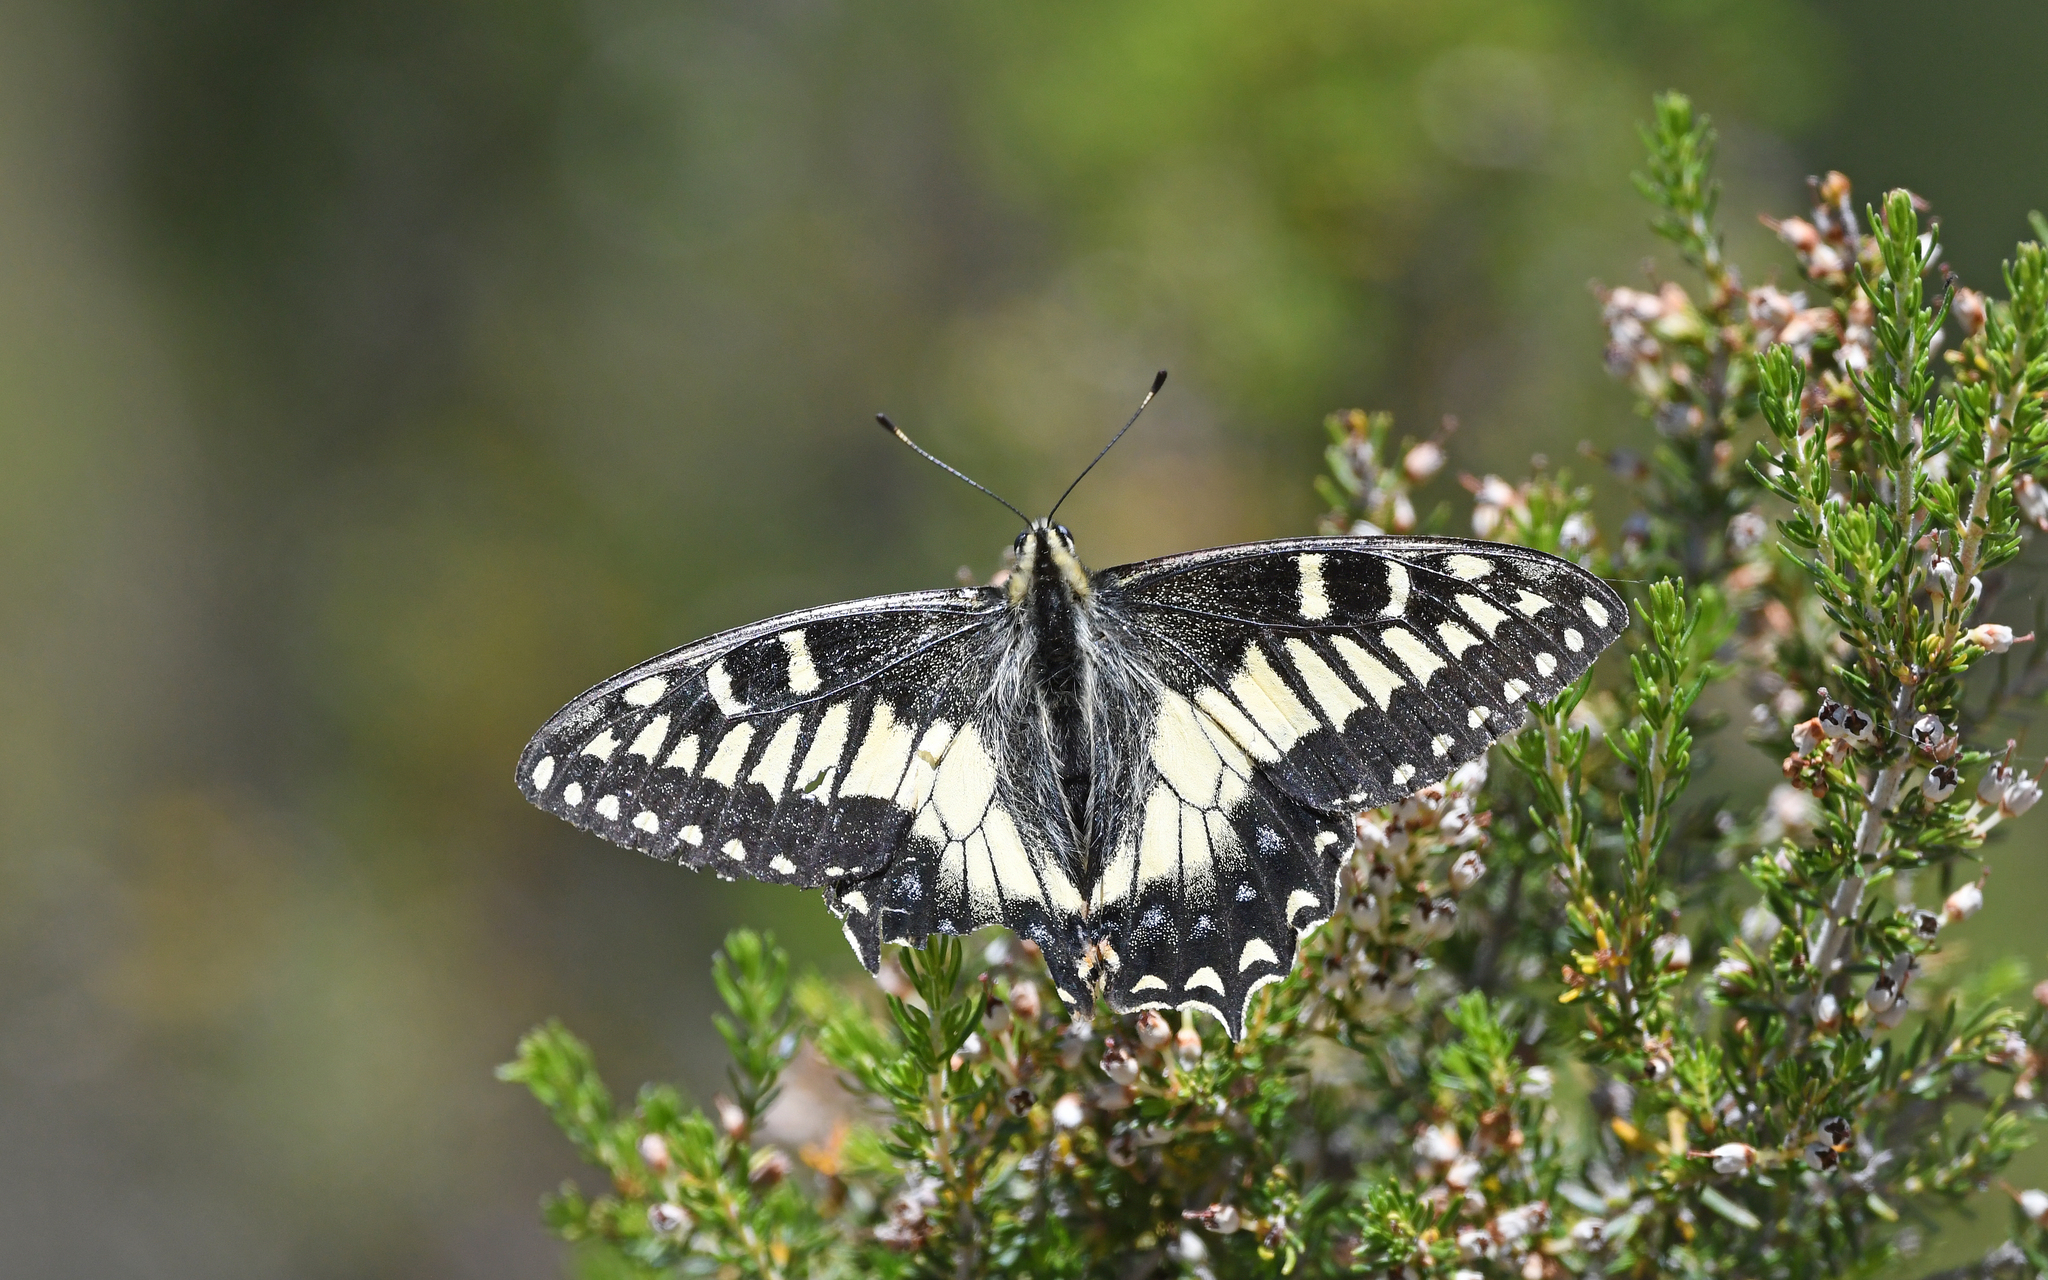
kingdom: Animalia
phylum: Arthropoda
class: Insecta
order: Lepidoptera
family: Papilionidae
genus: Papilio
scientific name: Papilio hospiton
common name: Corsican swallowtail
